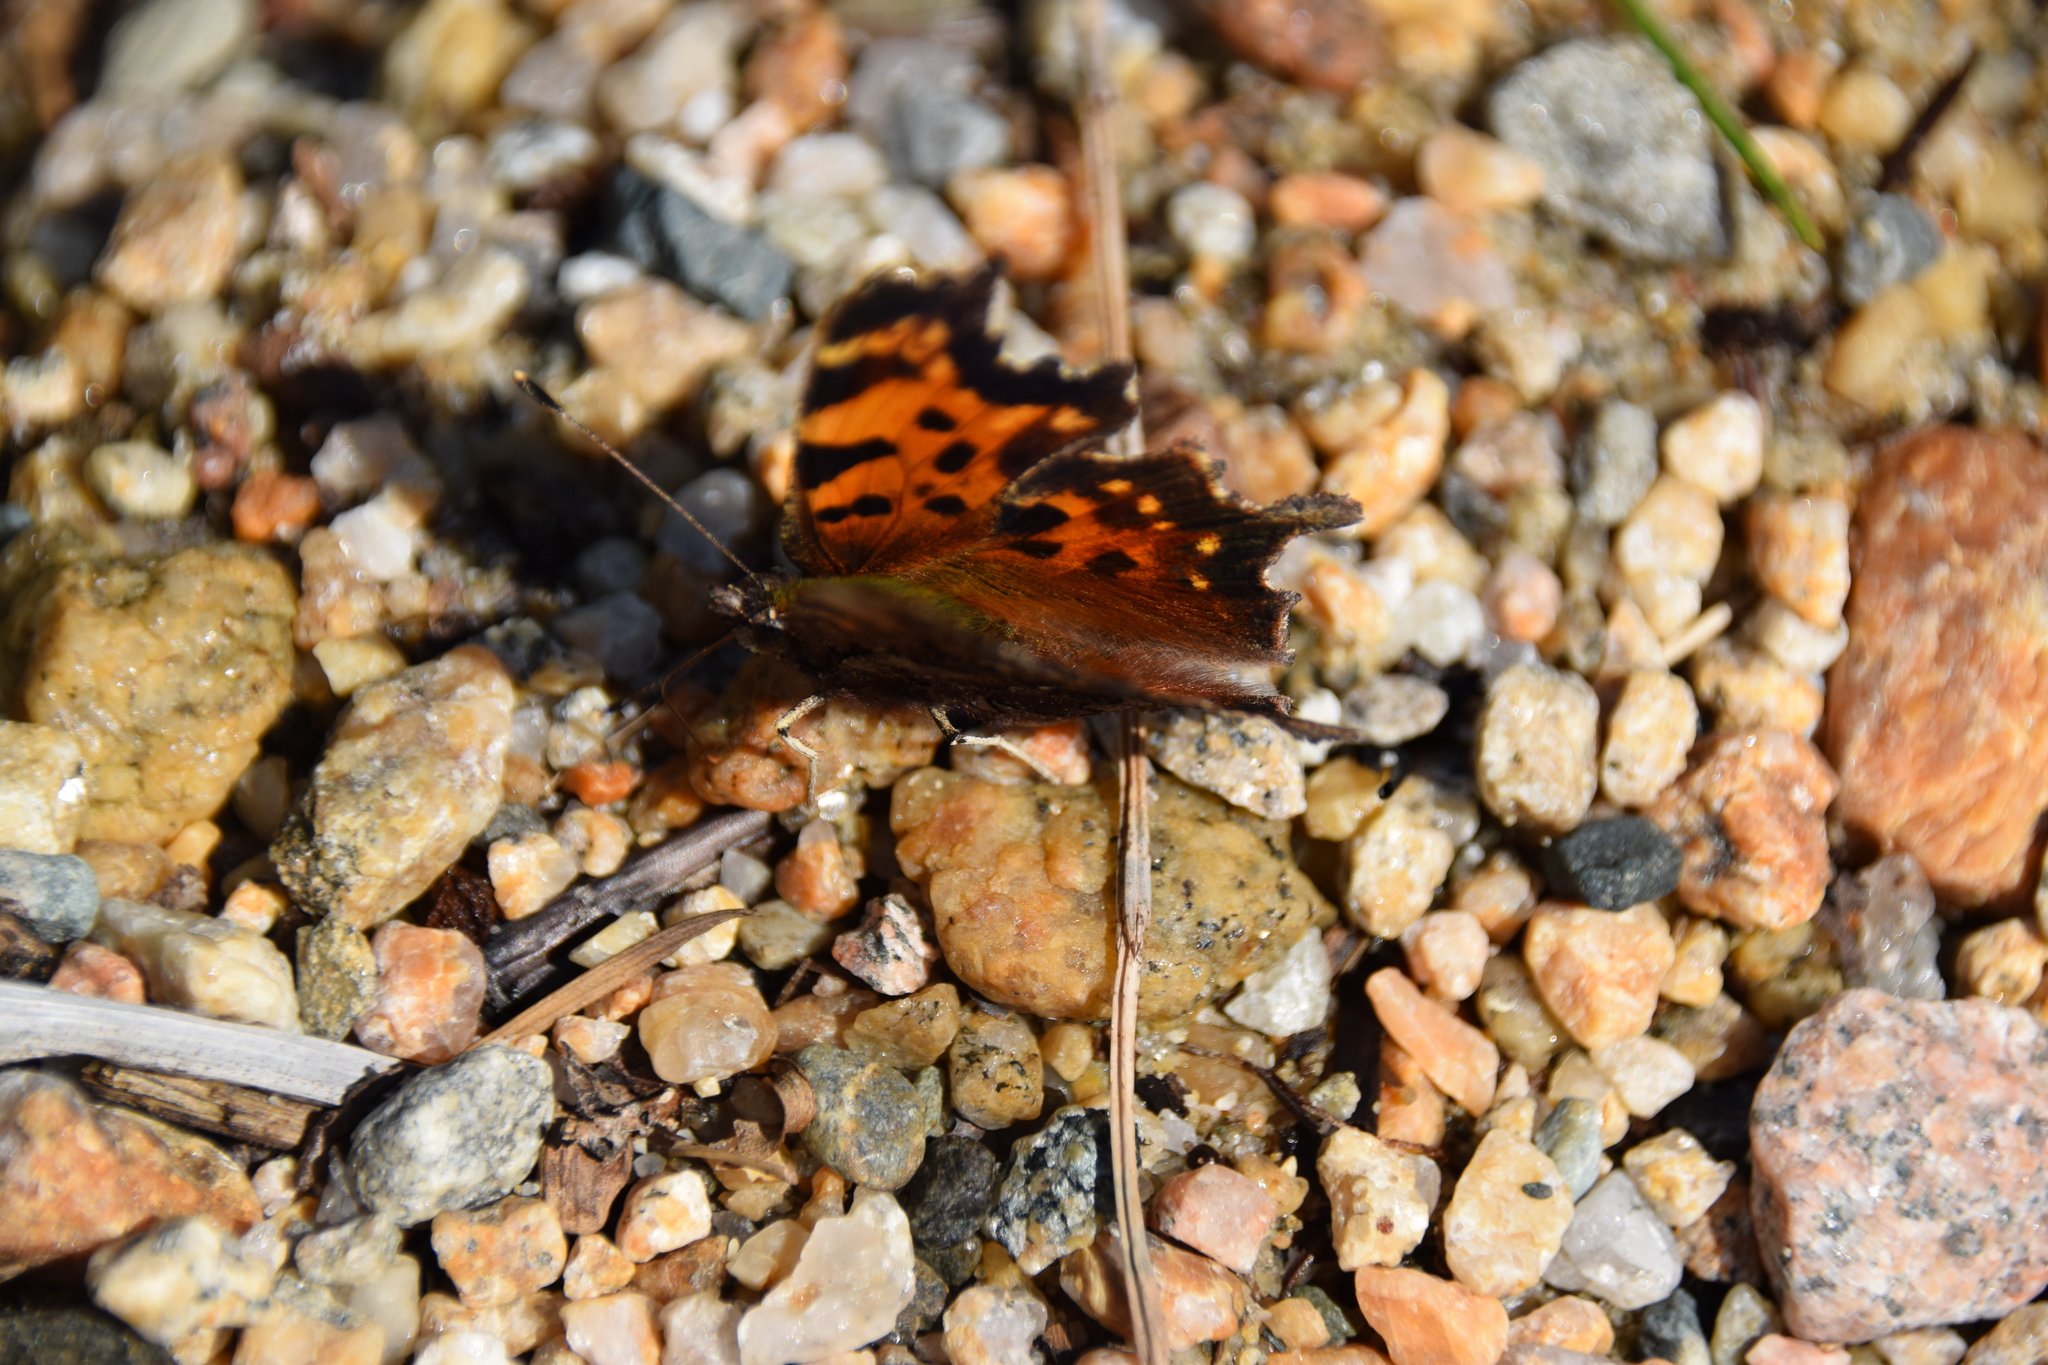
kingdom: Animalia
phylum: Arthropoda
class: Insecta
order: Lepidoptera
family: Nymphalidae
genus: Polygonia
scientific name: Polygonia faunus
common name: Green comma
